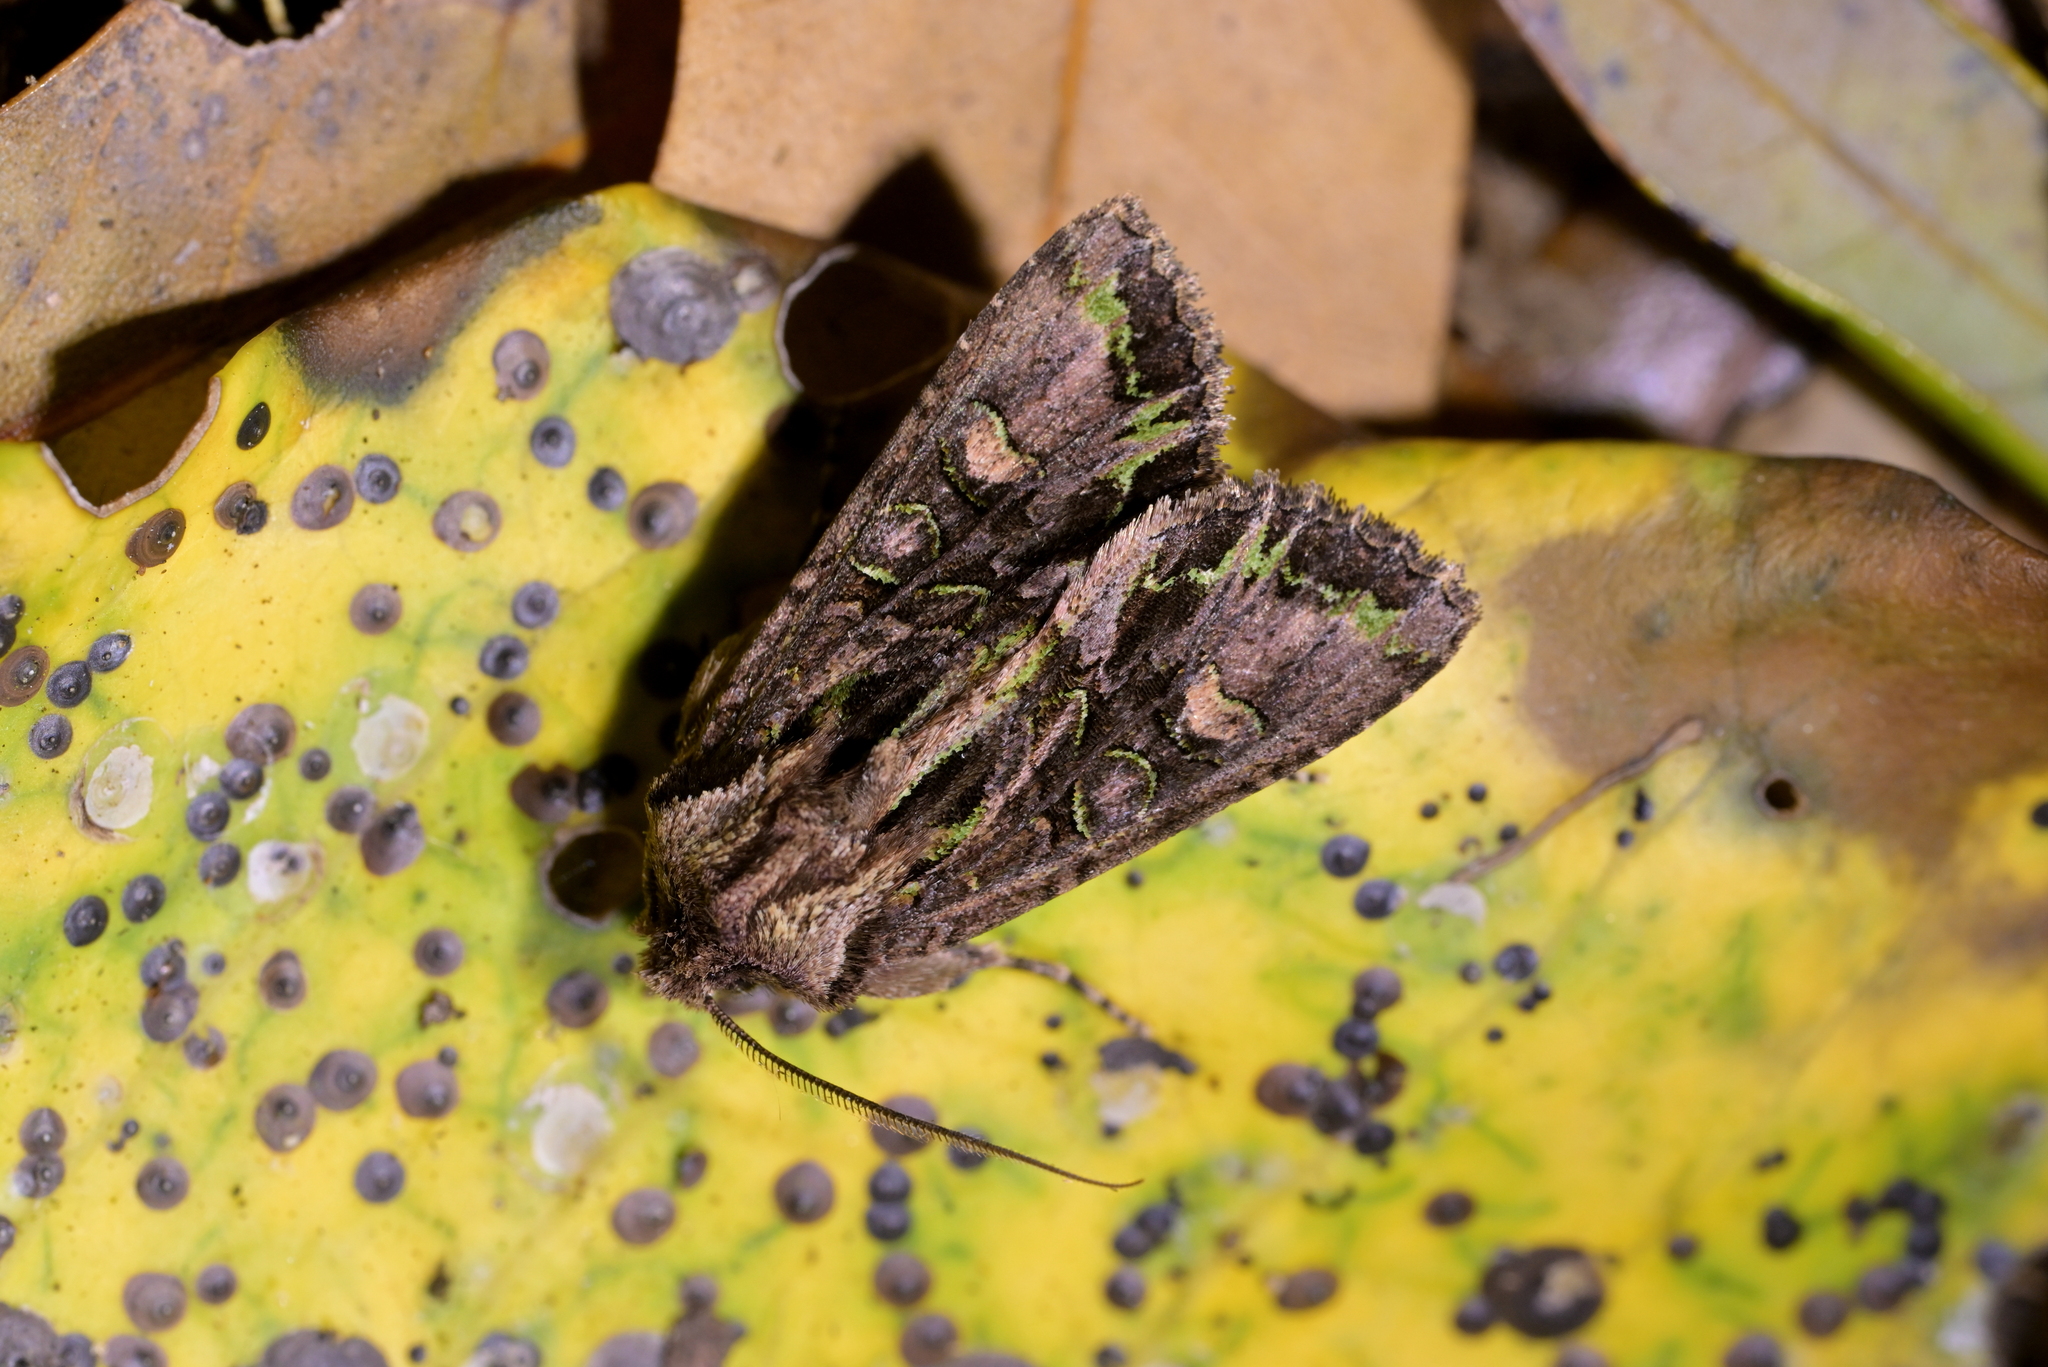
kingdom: Animalia
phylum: Arthropoda
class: Insecta
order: Lepidoptera
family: Noctuidae
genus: Ichneutica
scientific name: Ichneutica insignis
